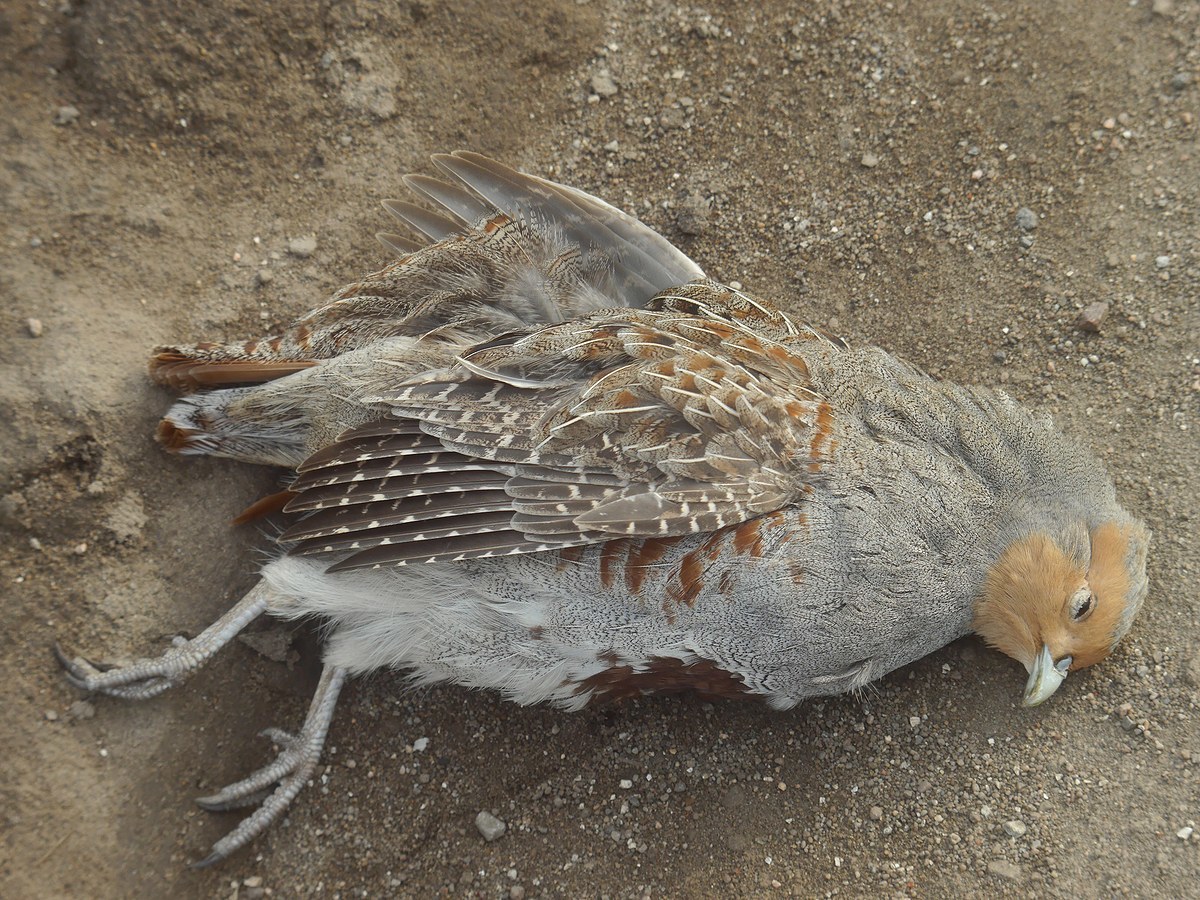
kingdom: Animalia
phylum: Chordata
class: Aves
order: Galliformes
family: Phasianidae
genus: Perdix
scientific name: Perdix perdix
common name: Grey partridge
